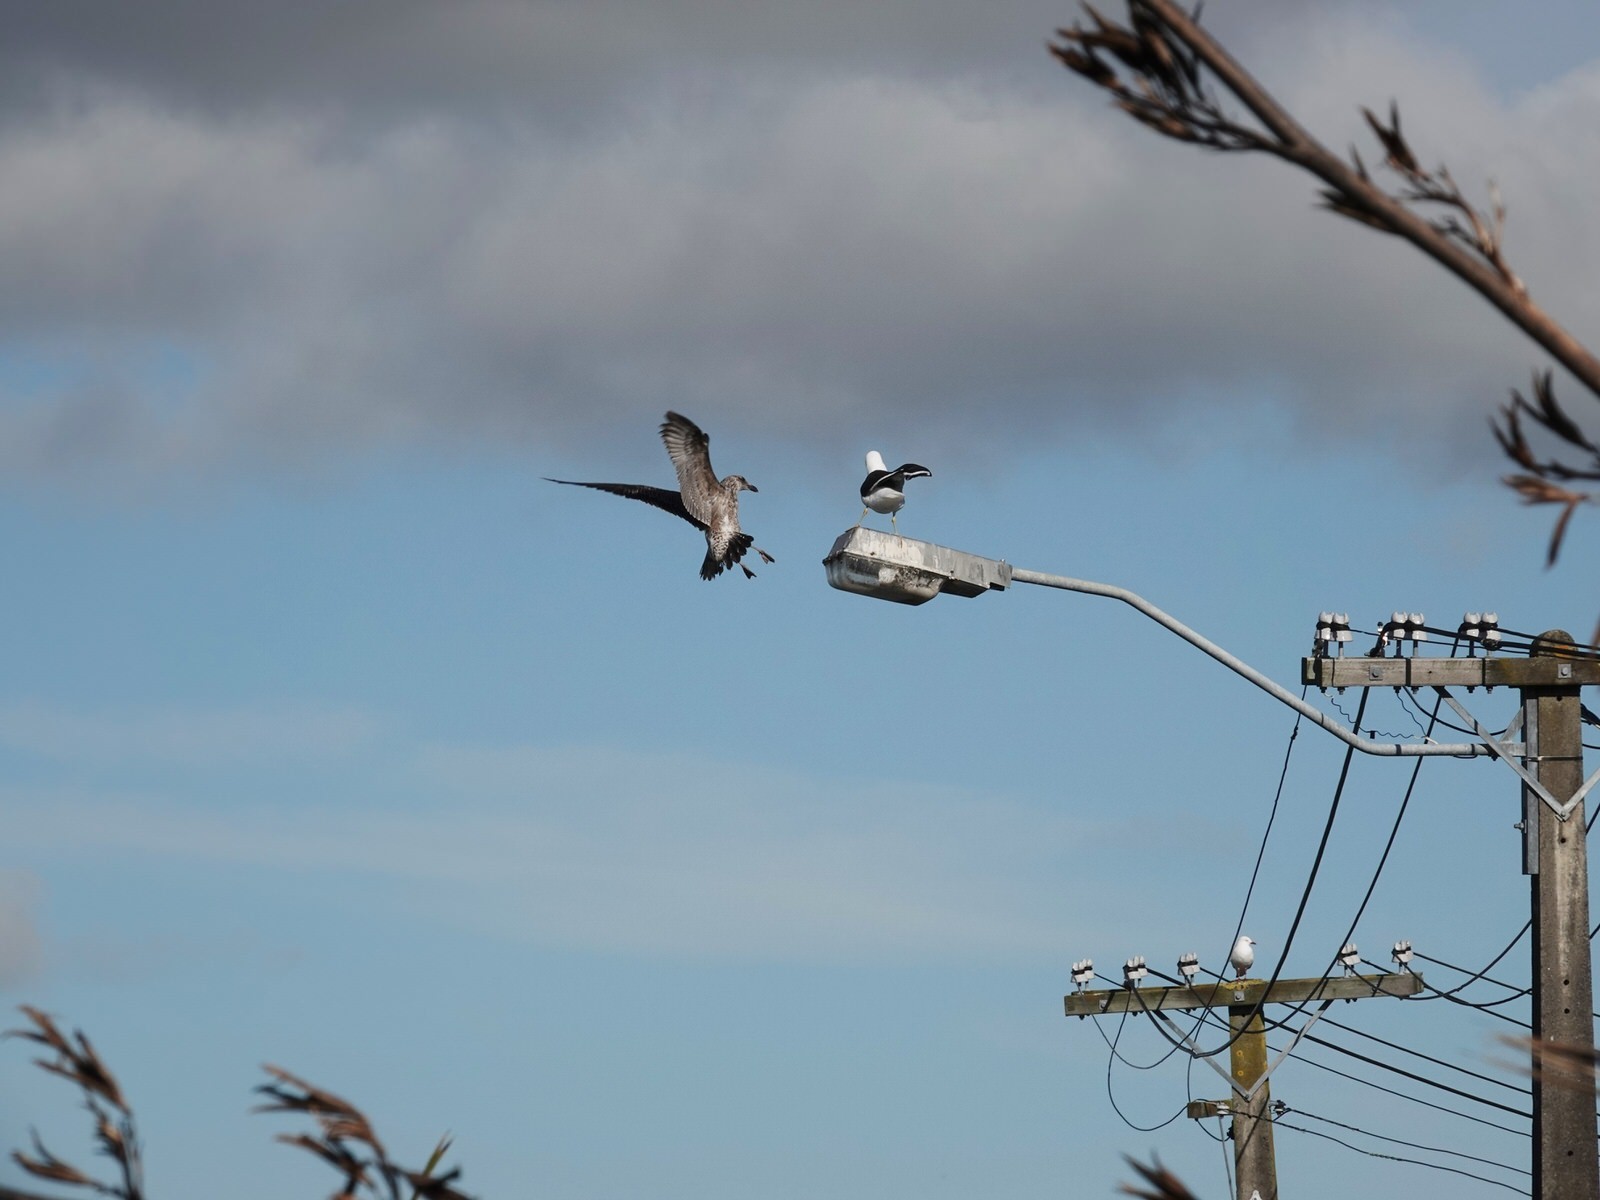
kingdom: Animalia
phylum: Chordata
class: Aves
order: Charadriiformes
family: Laridae
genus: Larus
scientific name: Larus dominicanus
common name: Kelp gull
